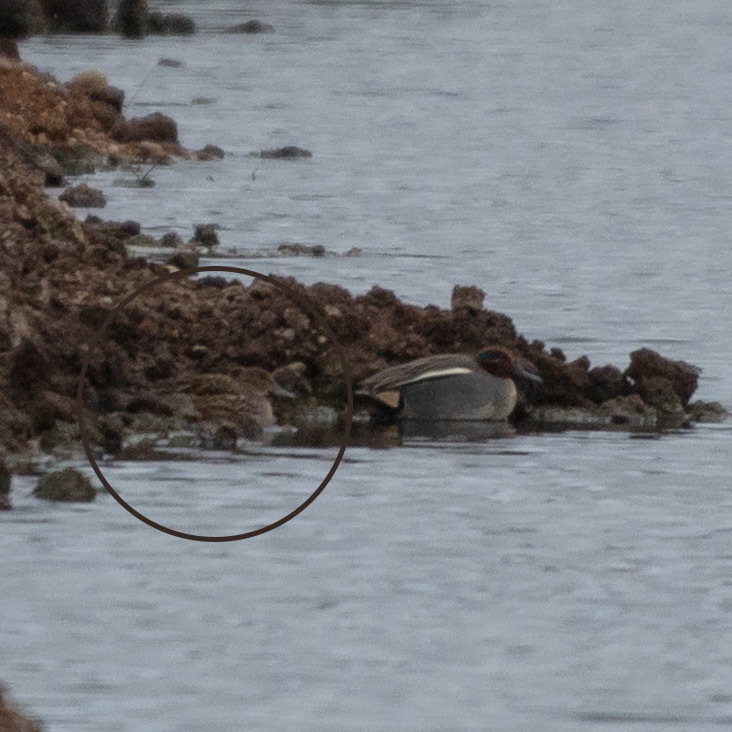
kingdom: Animalia
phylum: Chordata
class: Aves
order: Anseriformes
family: Anatidae
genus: Anas
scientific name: Anas crecca
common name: Eurasian teal
